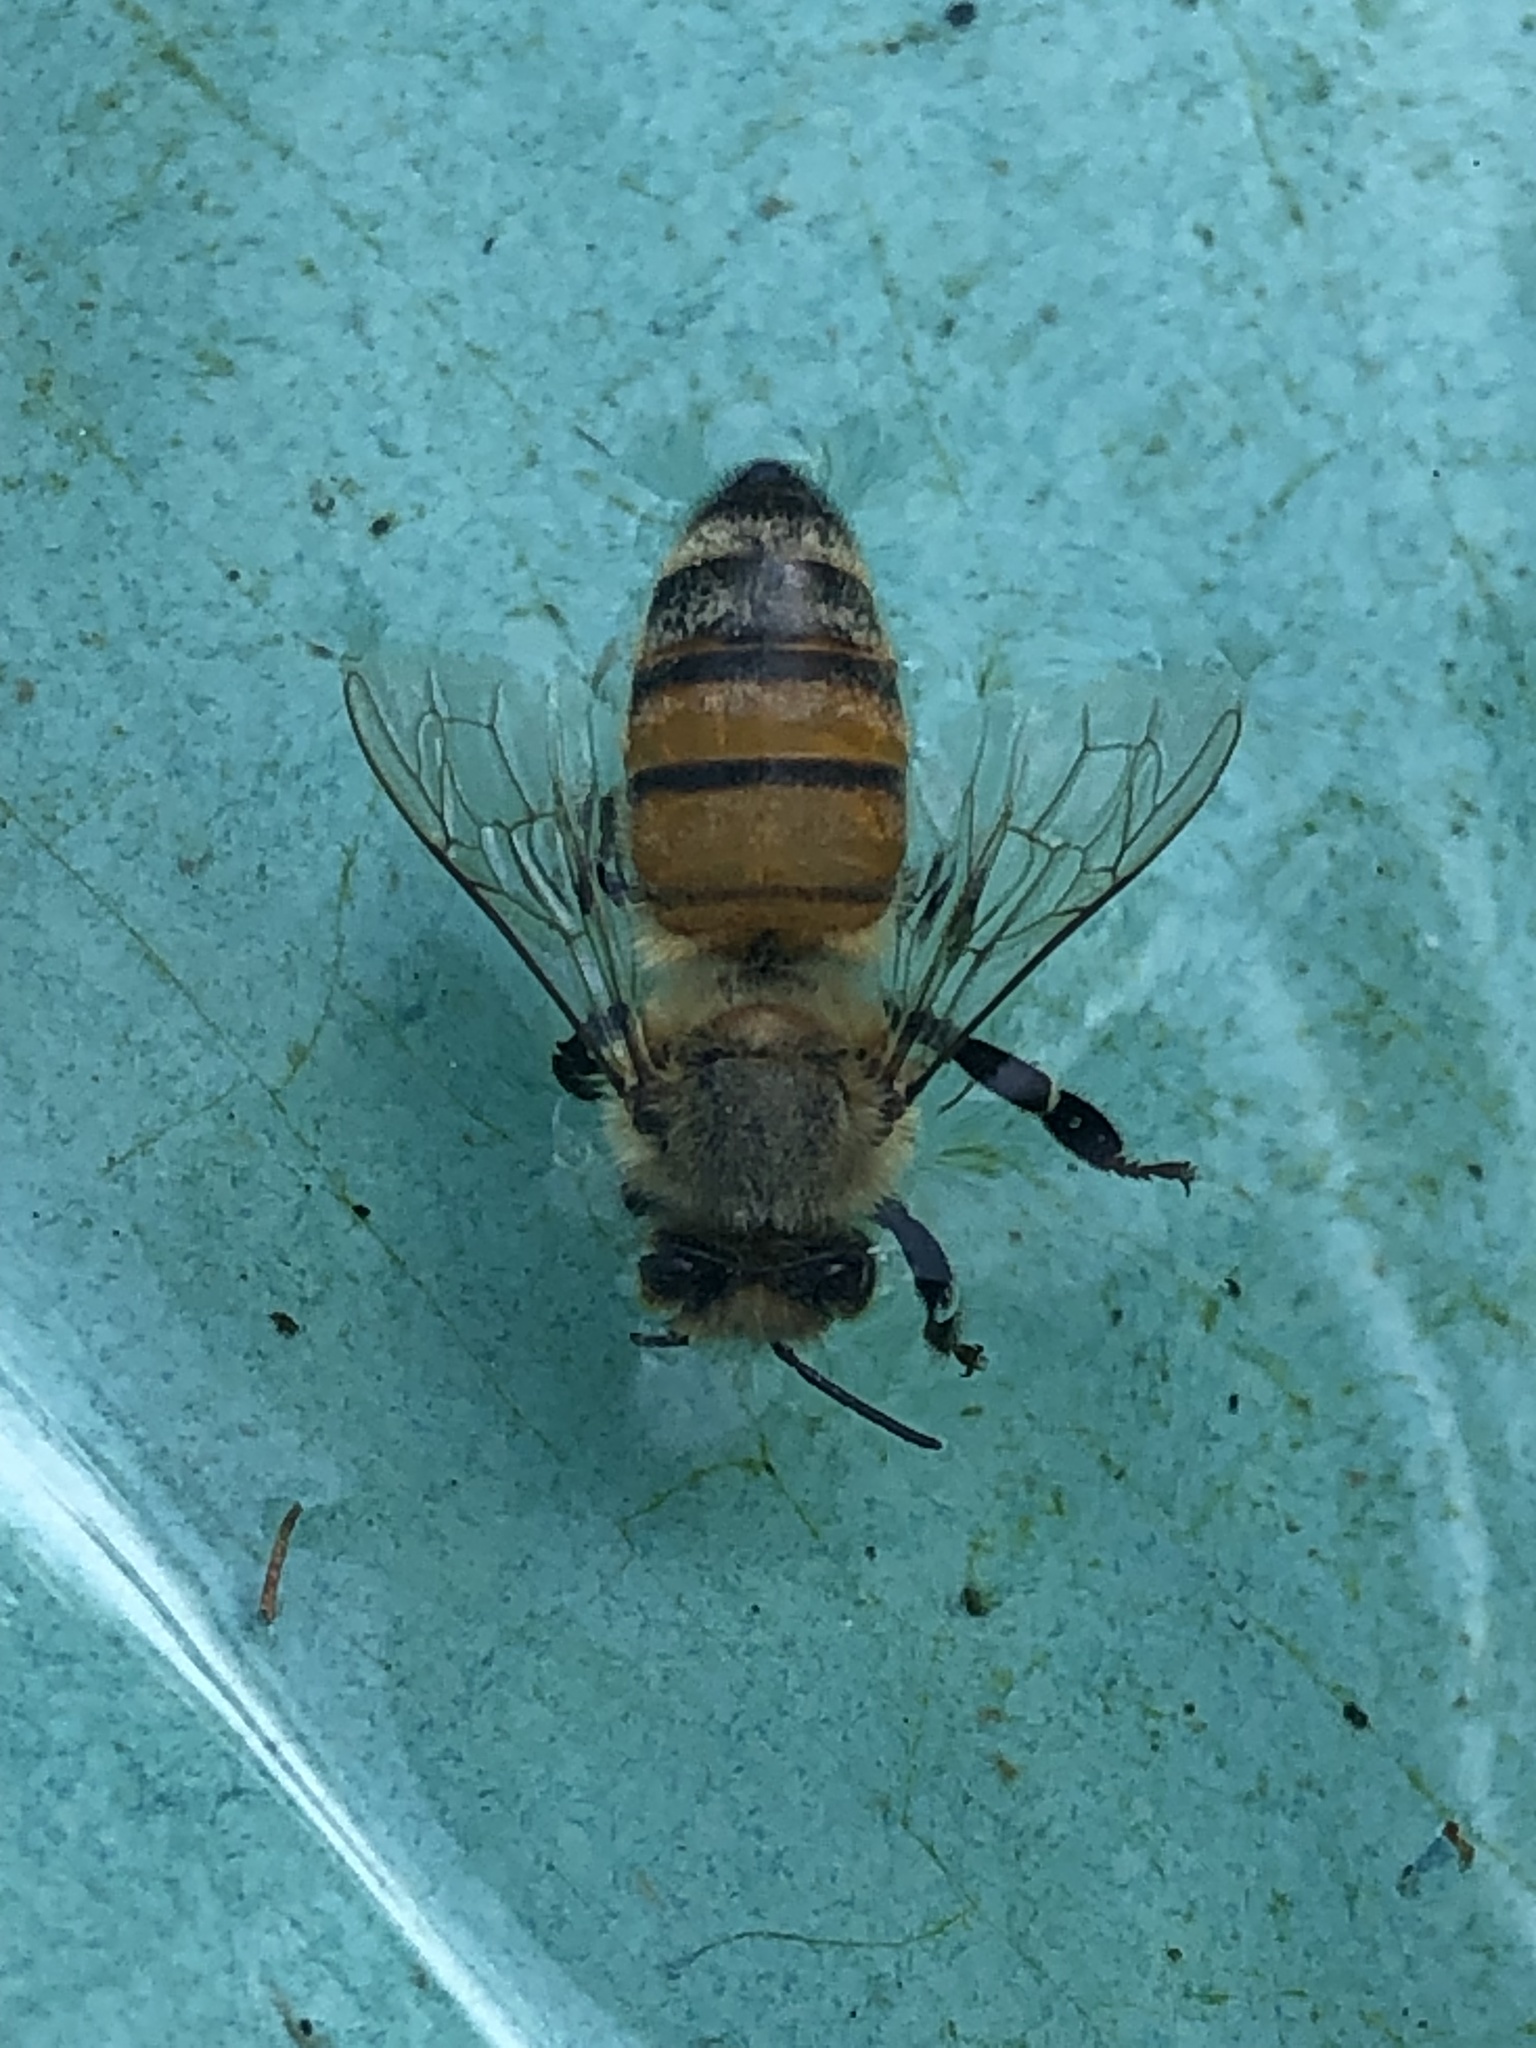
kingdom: Animalia
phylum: Arthropoda
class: Insecta
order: Hymenoptera
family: Apidae
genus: Apis
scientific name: Apis mellifera
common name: Honey bee
